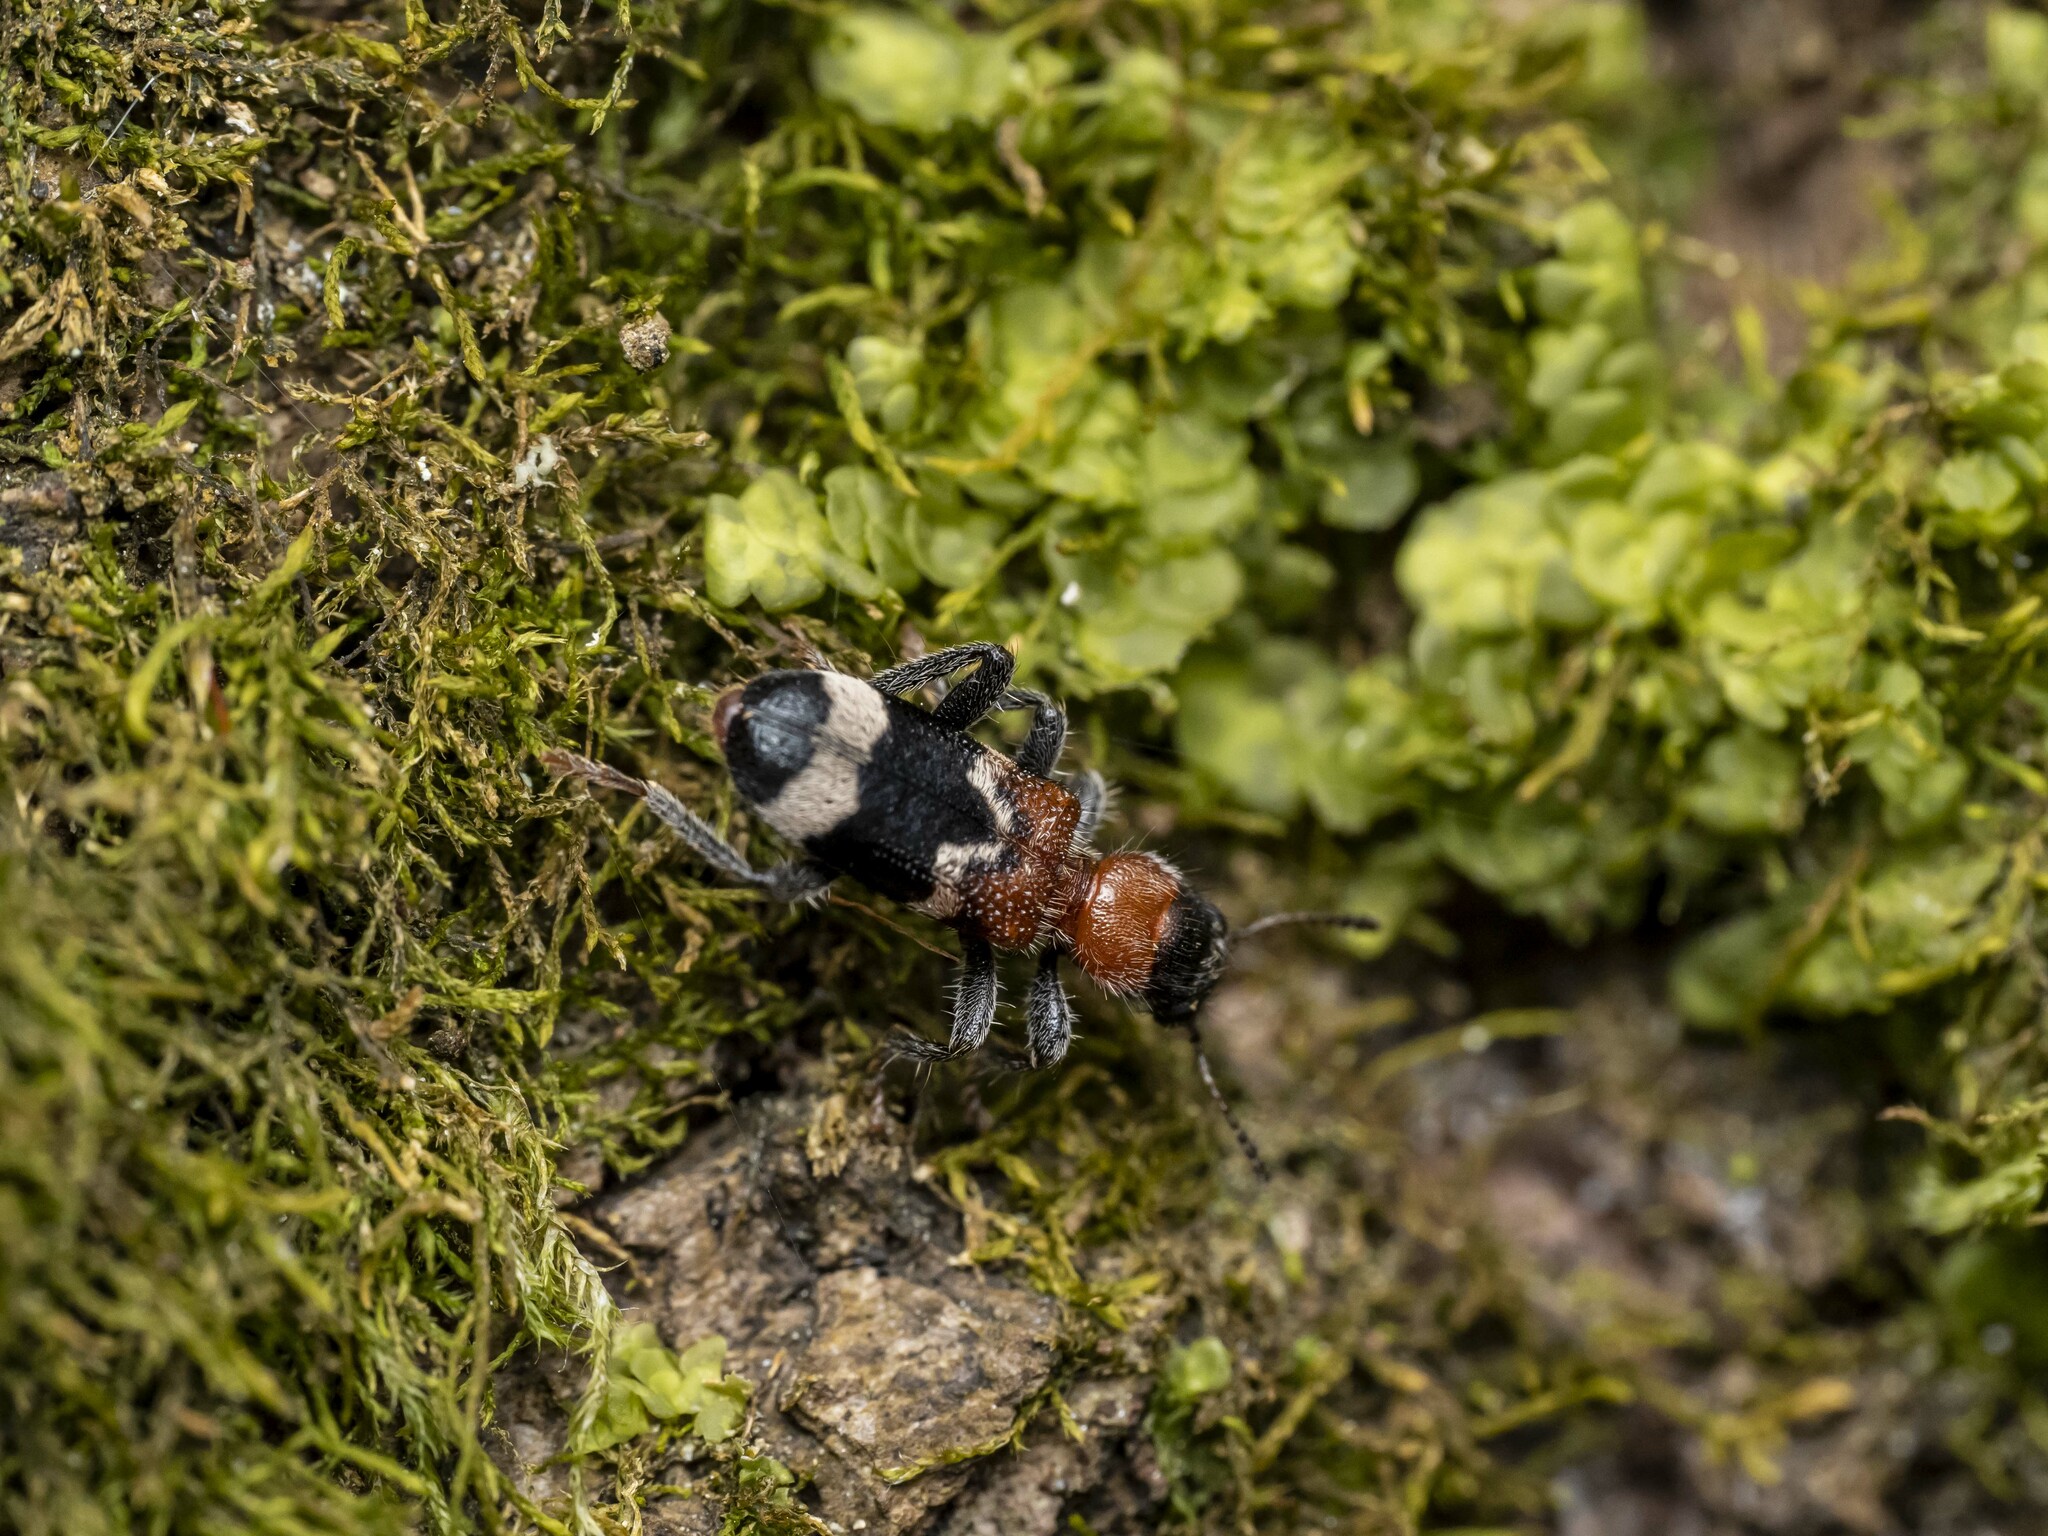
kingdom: Animalia
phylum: Arthropoda
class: Insecta
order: Coleoptera
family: Cleridae
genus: Thanasimus
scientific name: Thanasimus formicarius
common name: Ant beetle
